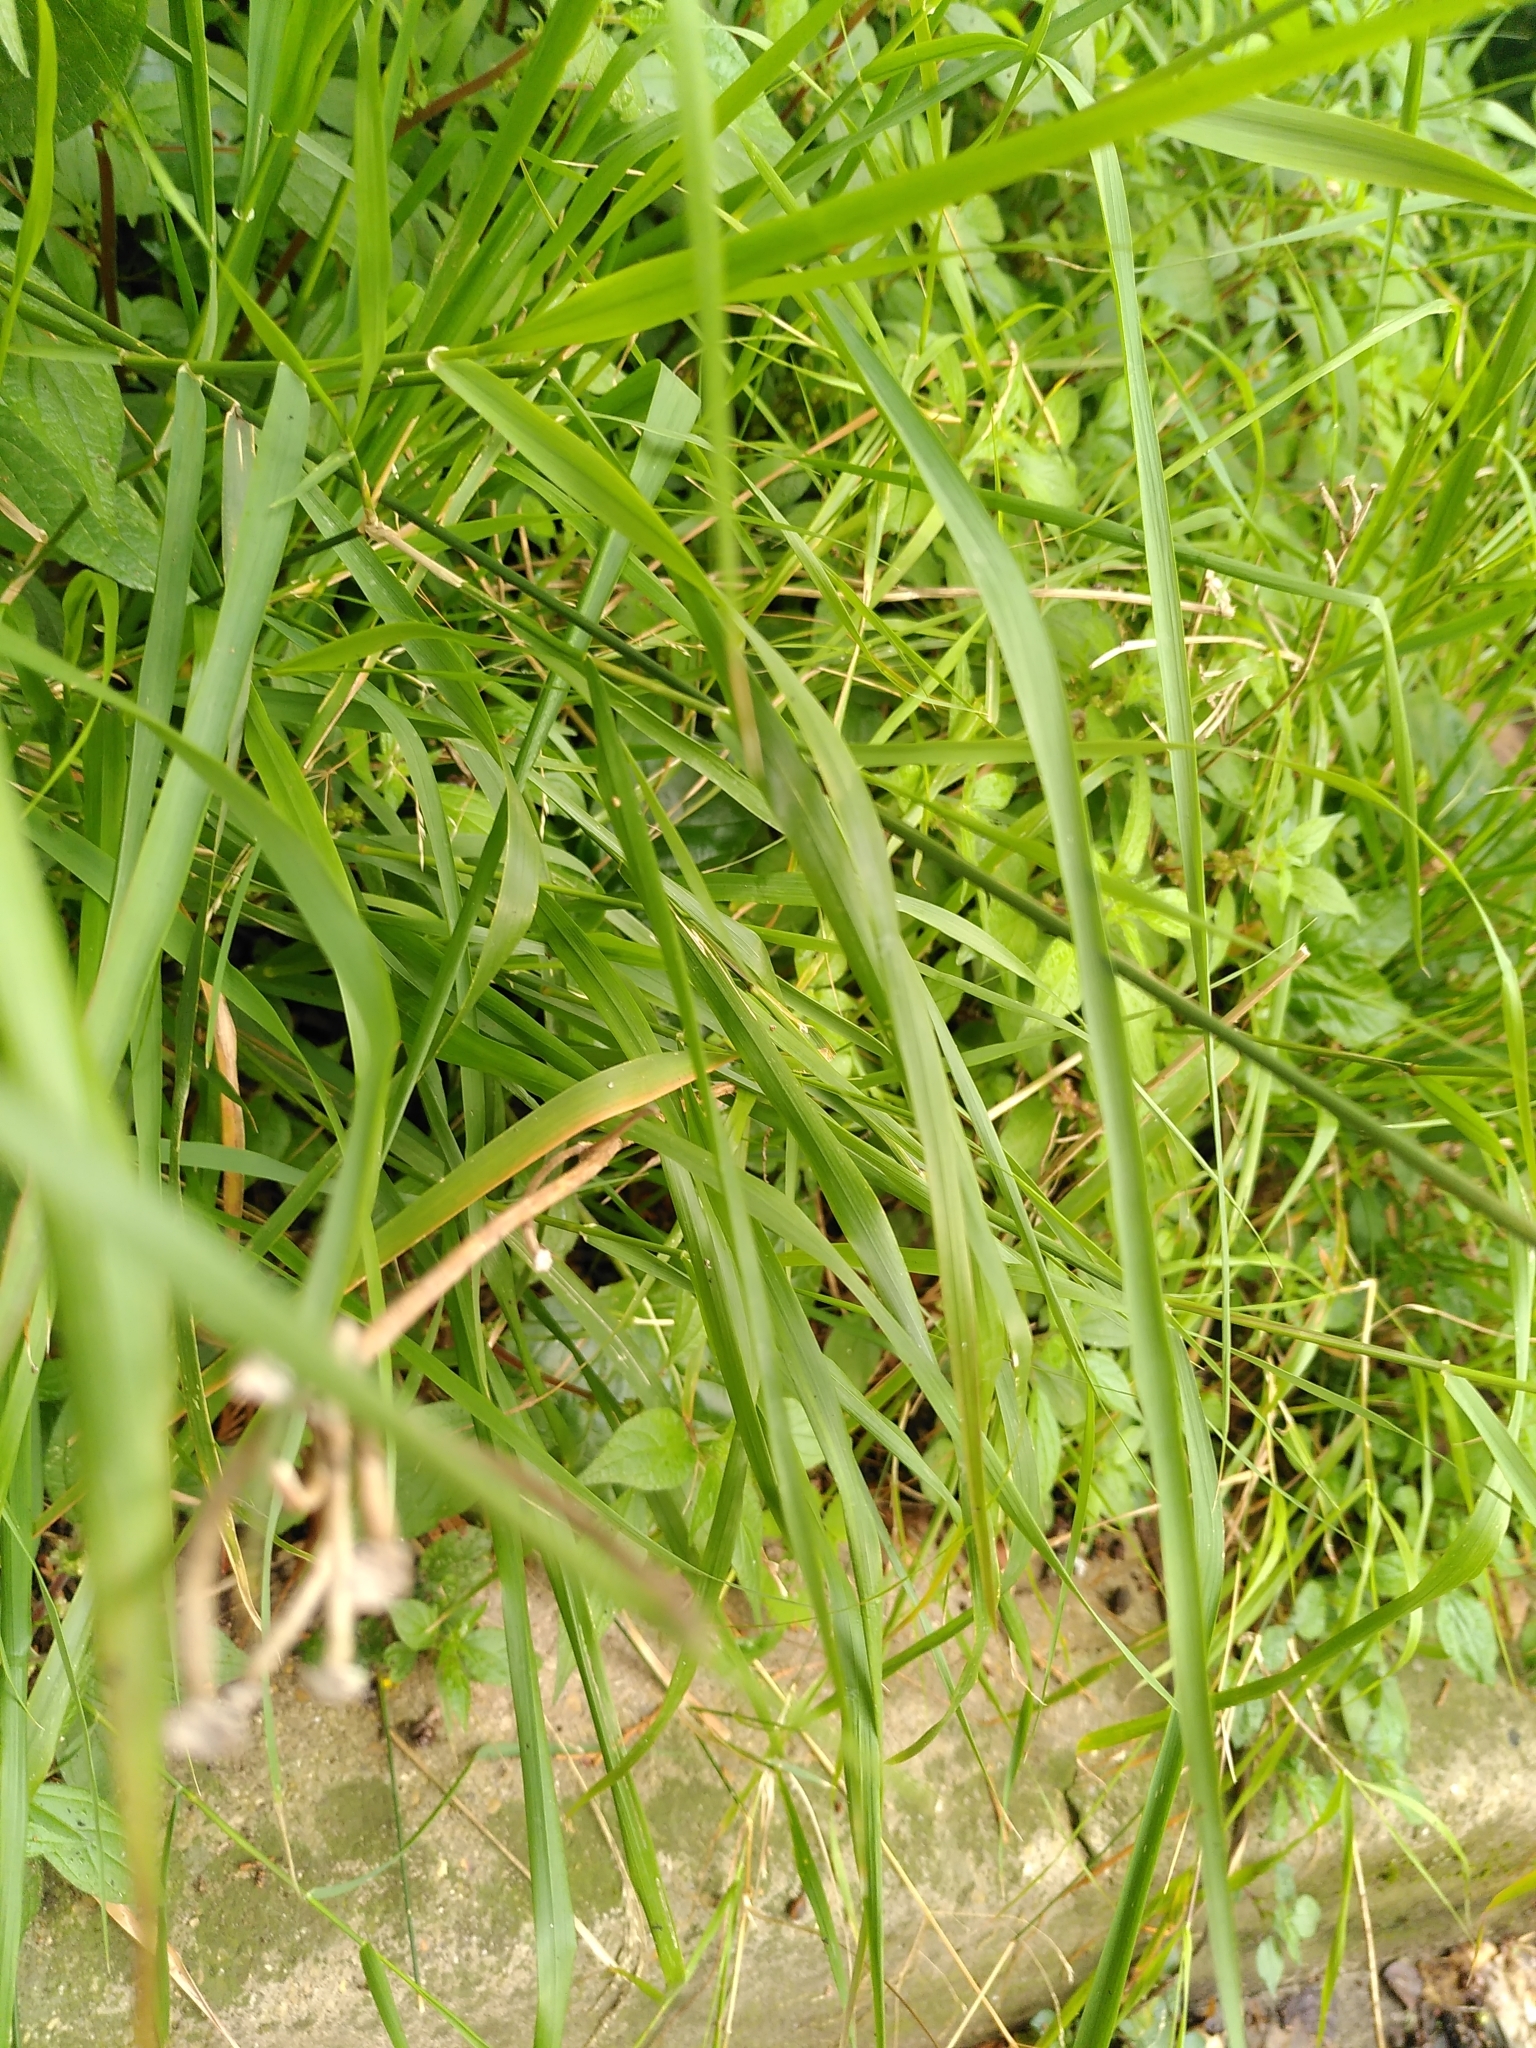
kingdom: Plantae
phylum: Tracheophyta
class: Liliopsida
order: Poales
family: Poaceae
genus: Oloptum
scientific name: Oloptum miliaceum
